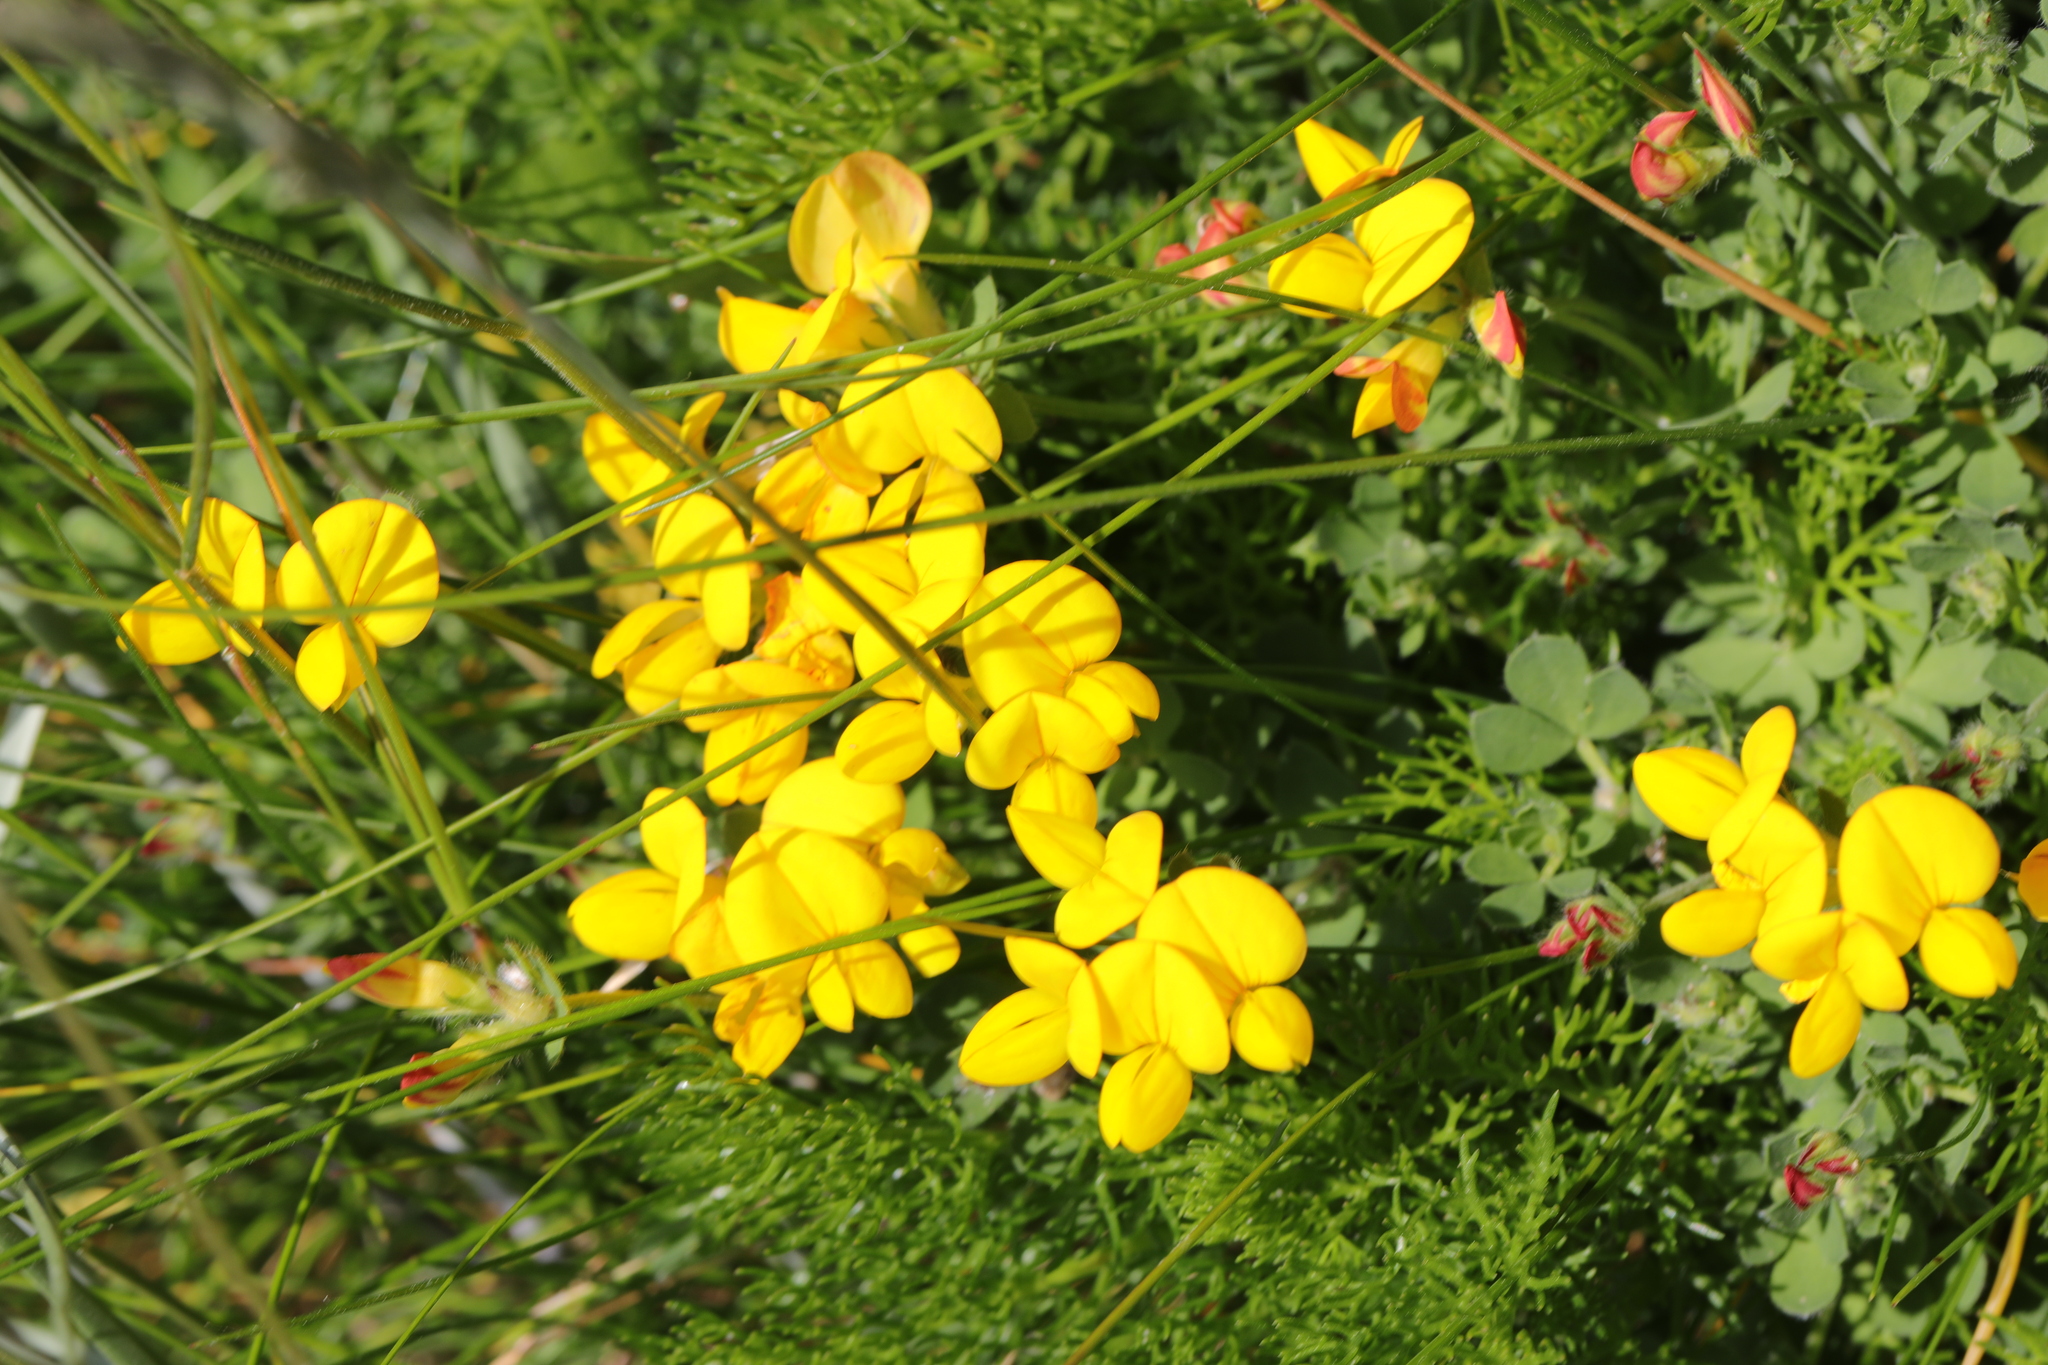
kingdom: Plantae
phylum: Tracheophyta
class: Magnoliopsida
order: Fabales
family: Fabaceae
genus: Lotus
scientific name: Lotus corniculatus
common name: Common bird's-foot-trefoil
